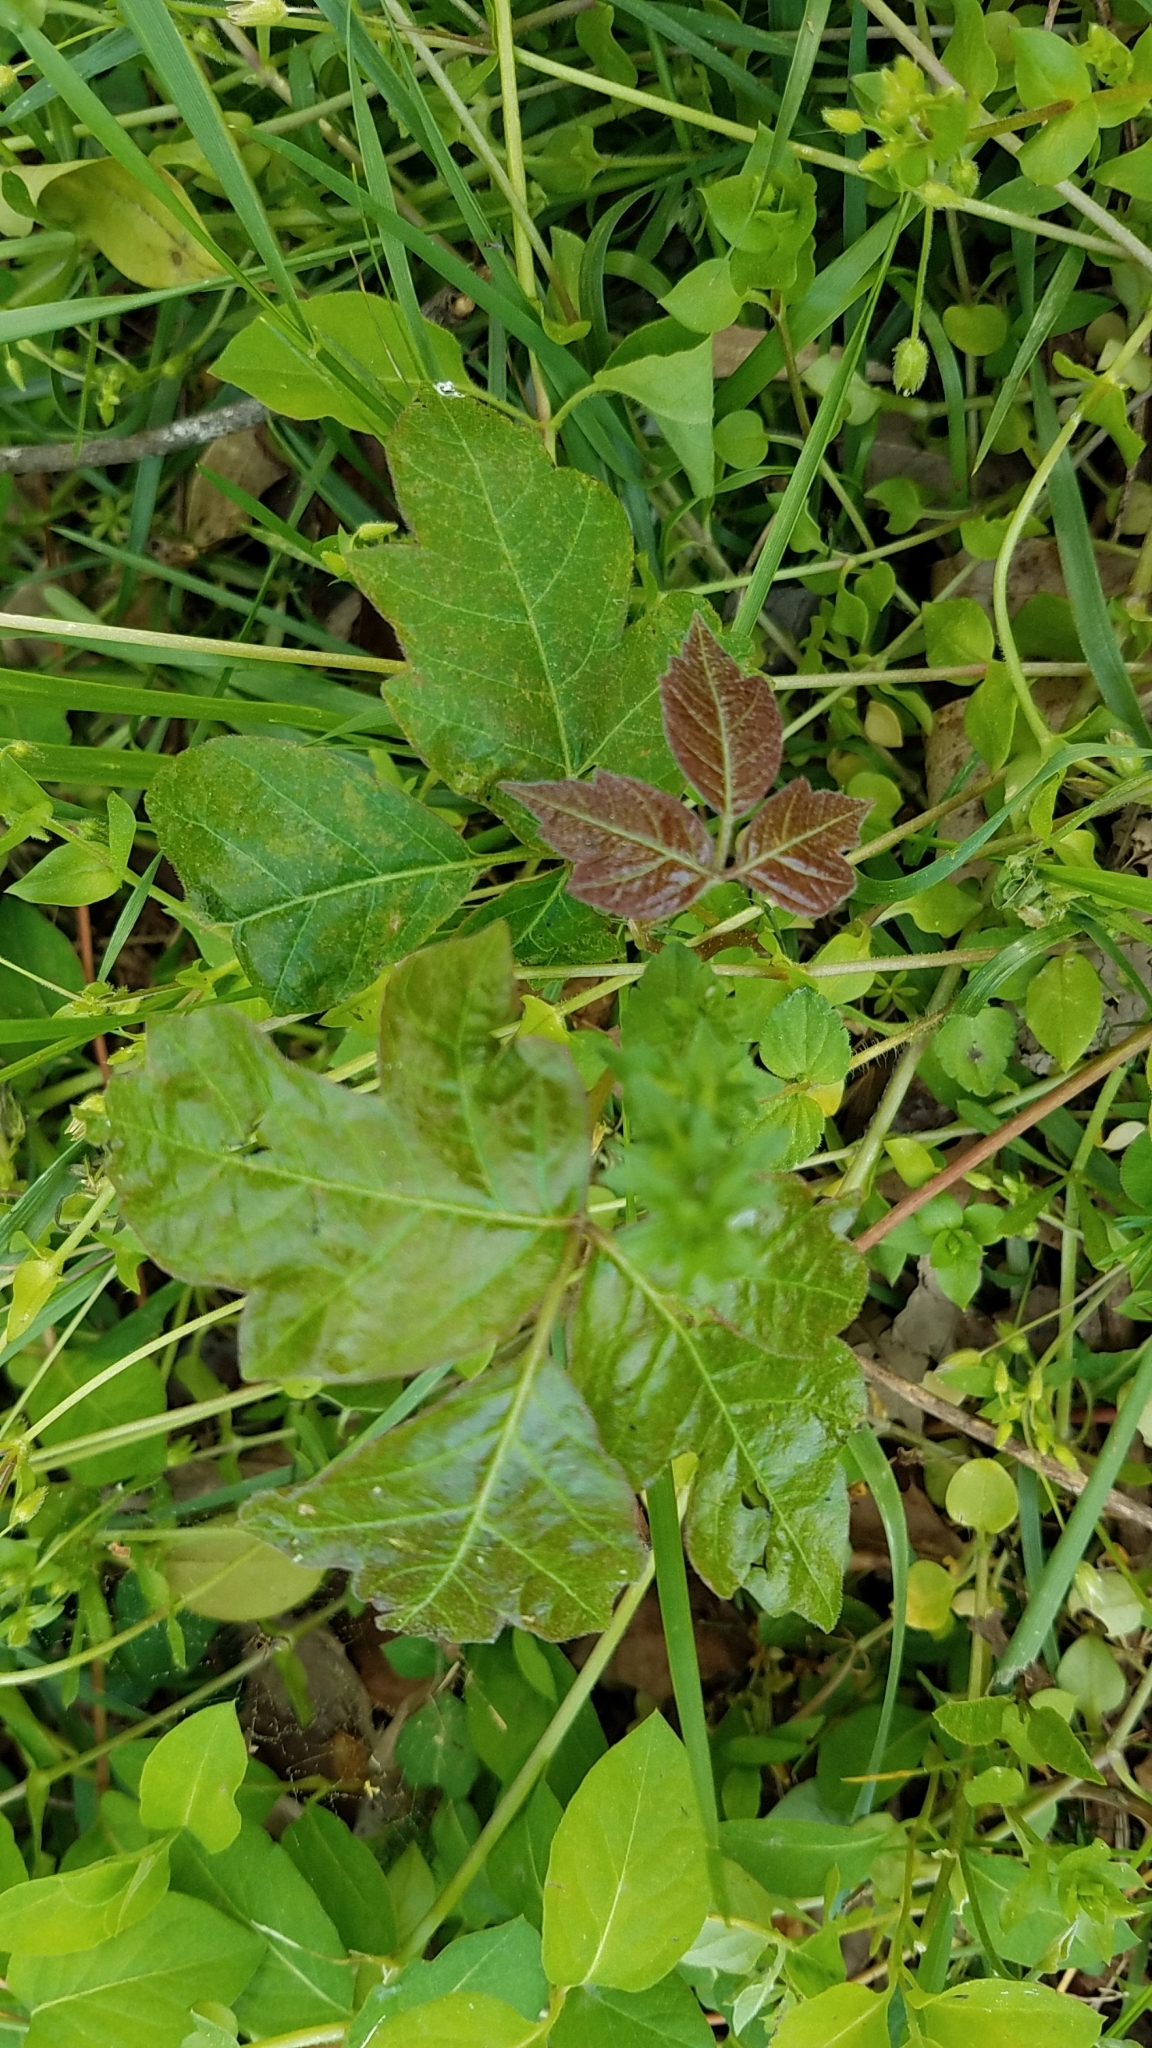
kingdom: Plantae
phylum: Tracheophyta
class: Magnoliopsida
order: Sapindales
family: Anacardiaceae
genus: Toxicodendron
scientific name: Toxicodendron radicans
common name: Poison ivy
